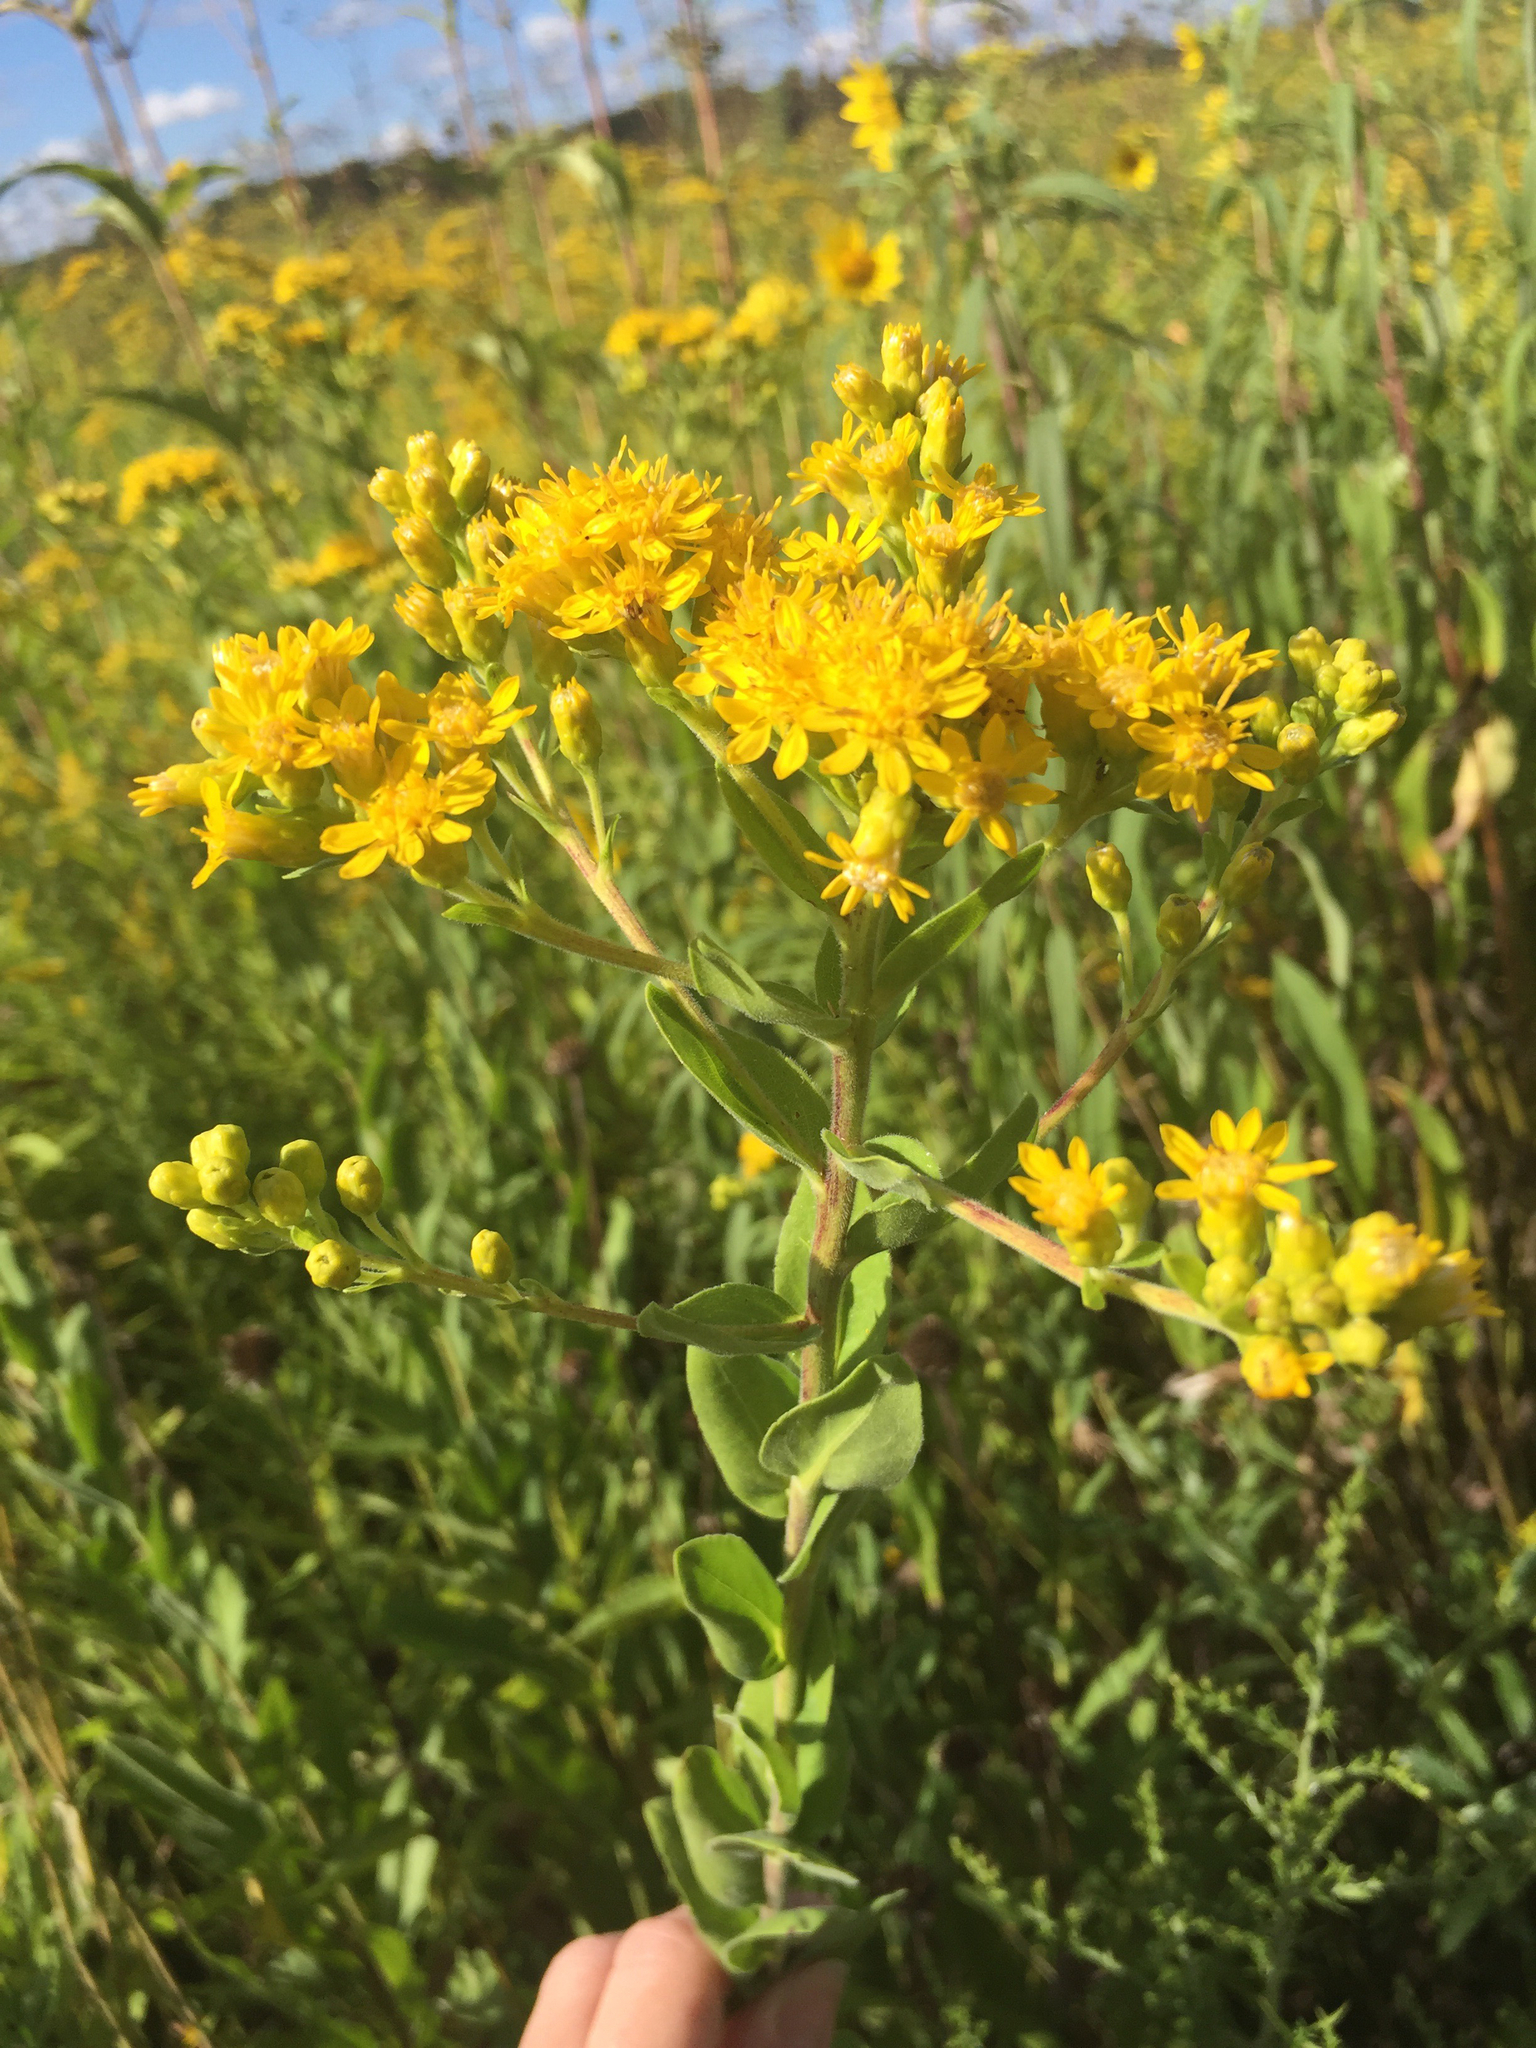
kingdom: Plantae
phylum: Tracheophyta
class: Magnoliopsida
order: Asterales
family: Asteraceae
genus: Solidago
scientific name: Solidago rigida
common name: Rigid goldenrod
